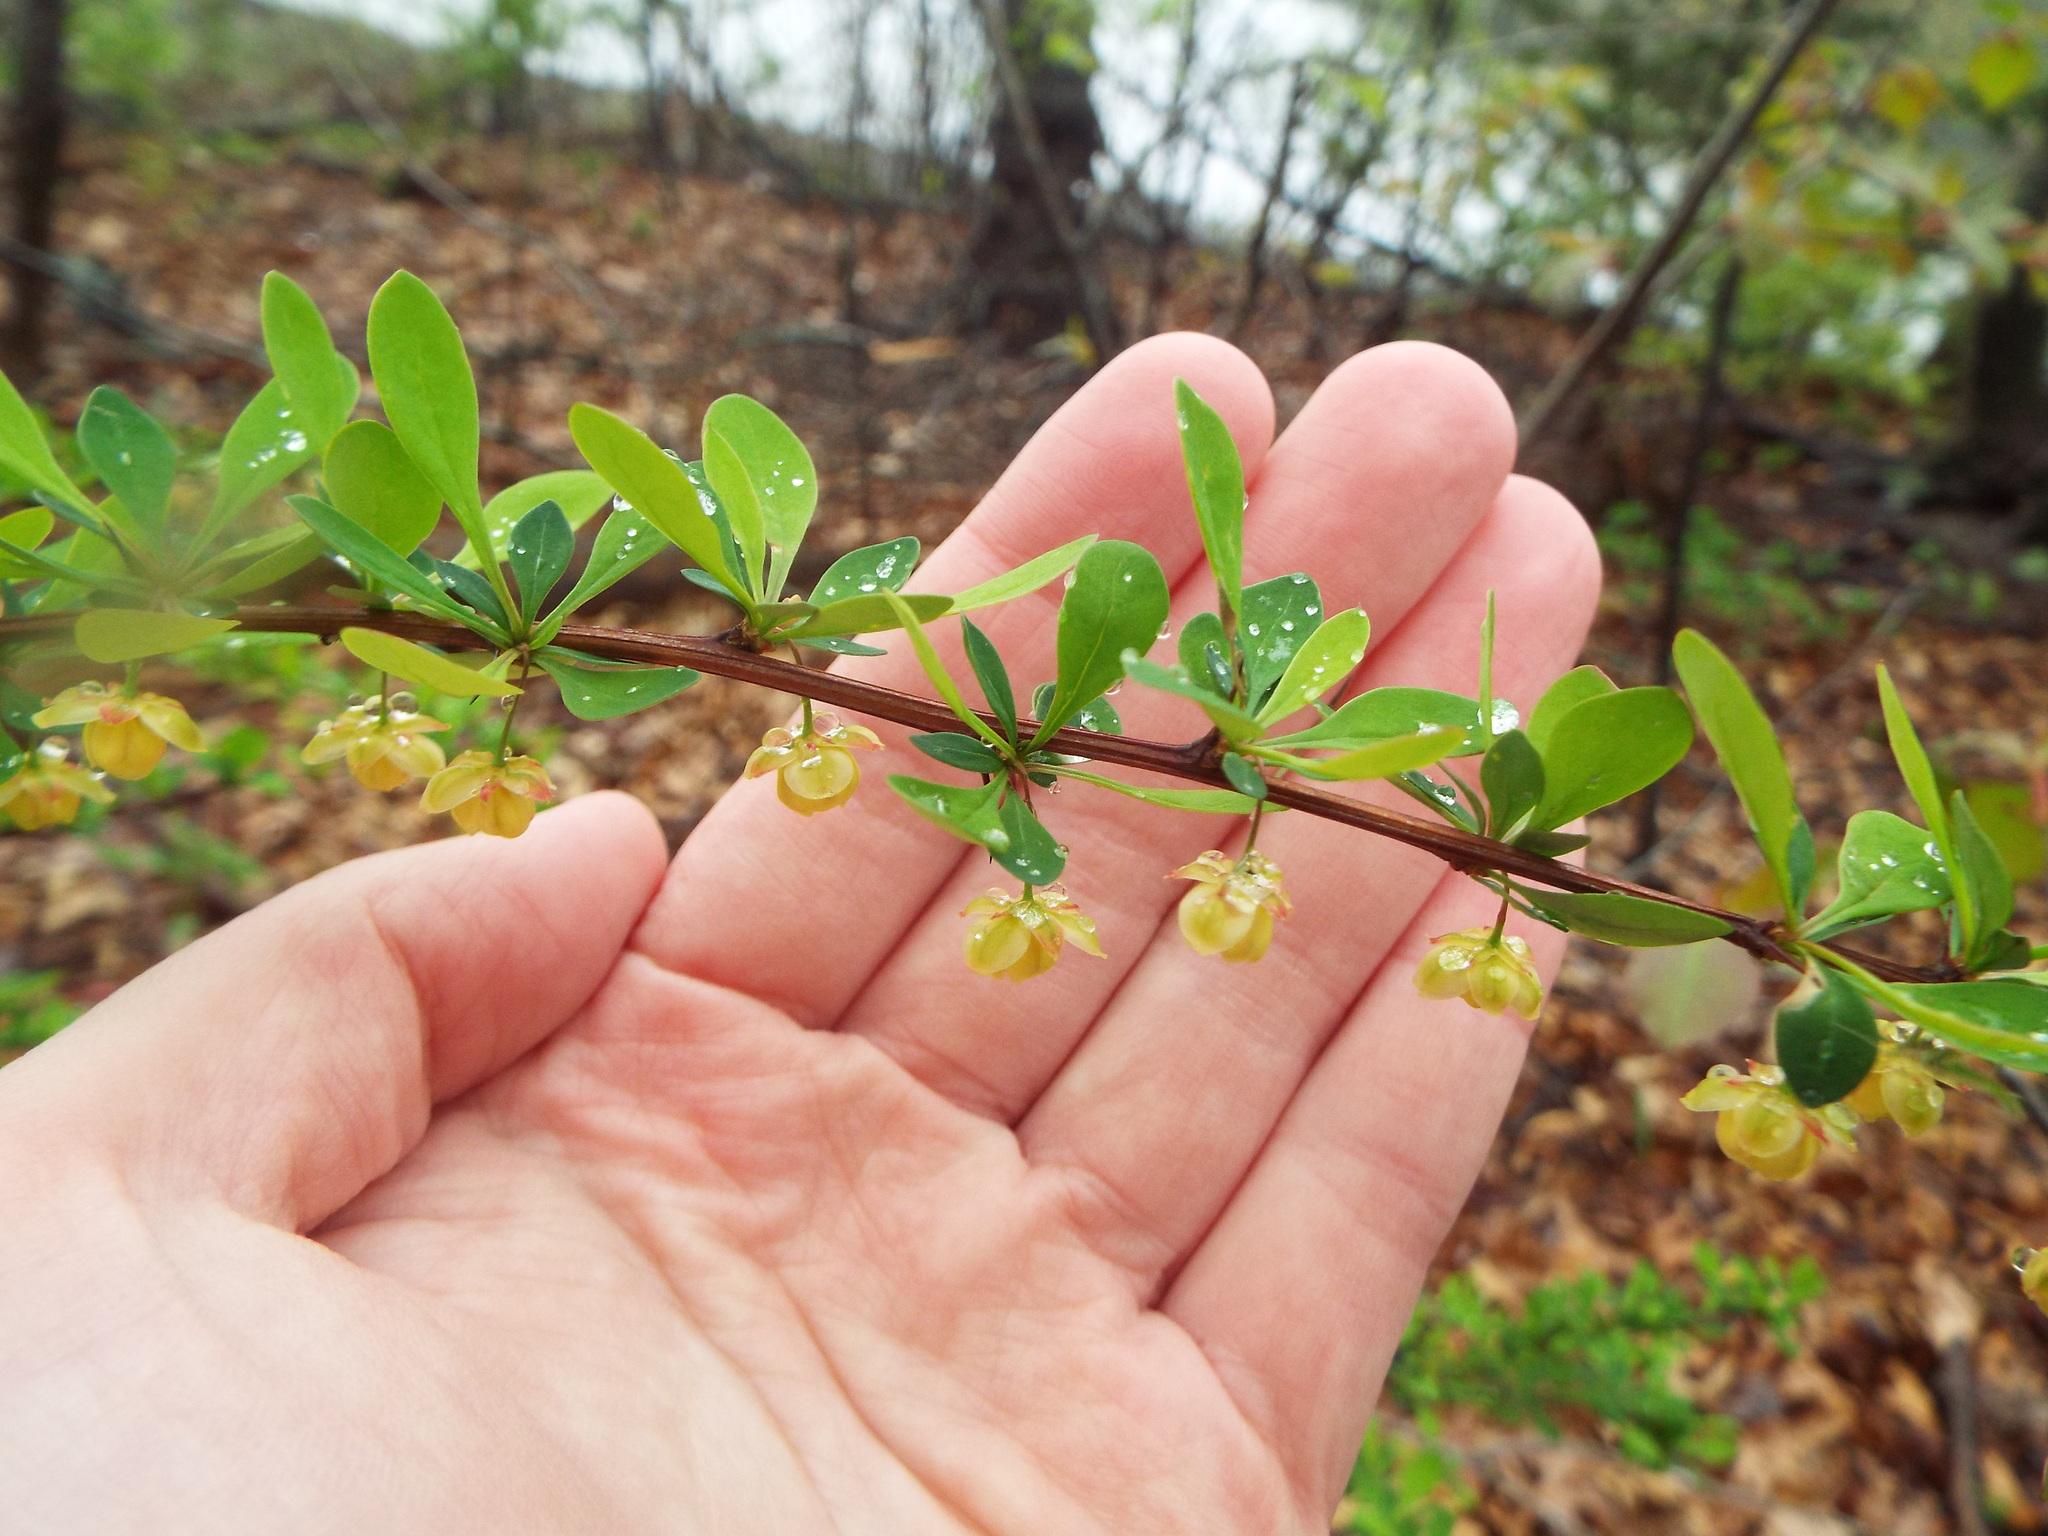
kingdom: Plantae
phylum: Tracheophyta
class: Magnoliopsida
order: Ranunculales
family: Berberidaceae
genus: Berberis
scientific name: Berberis thunbergii
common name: Japanese barberry
